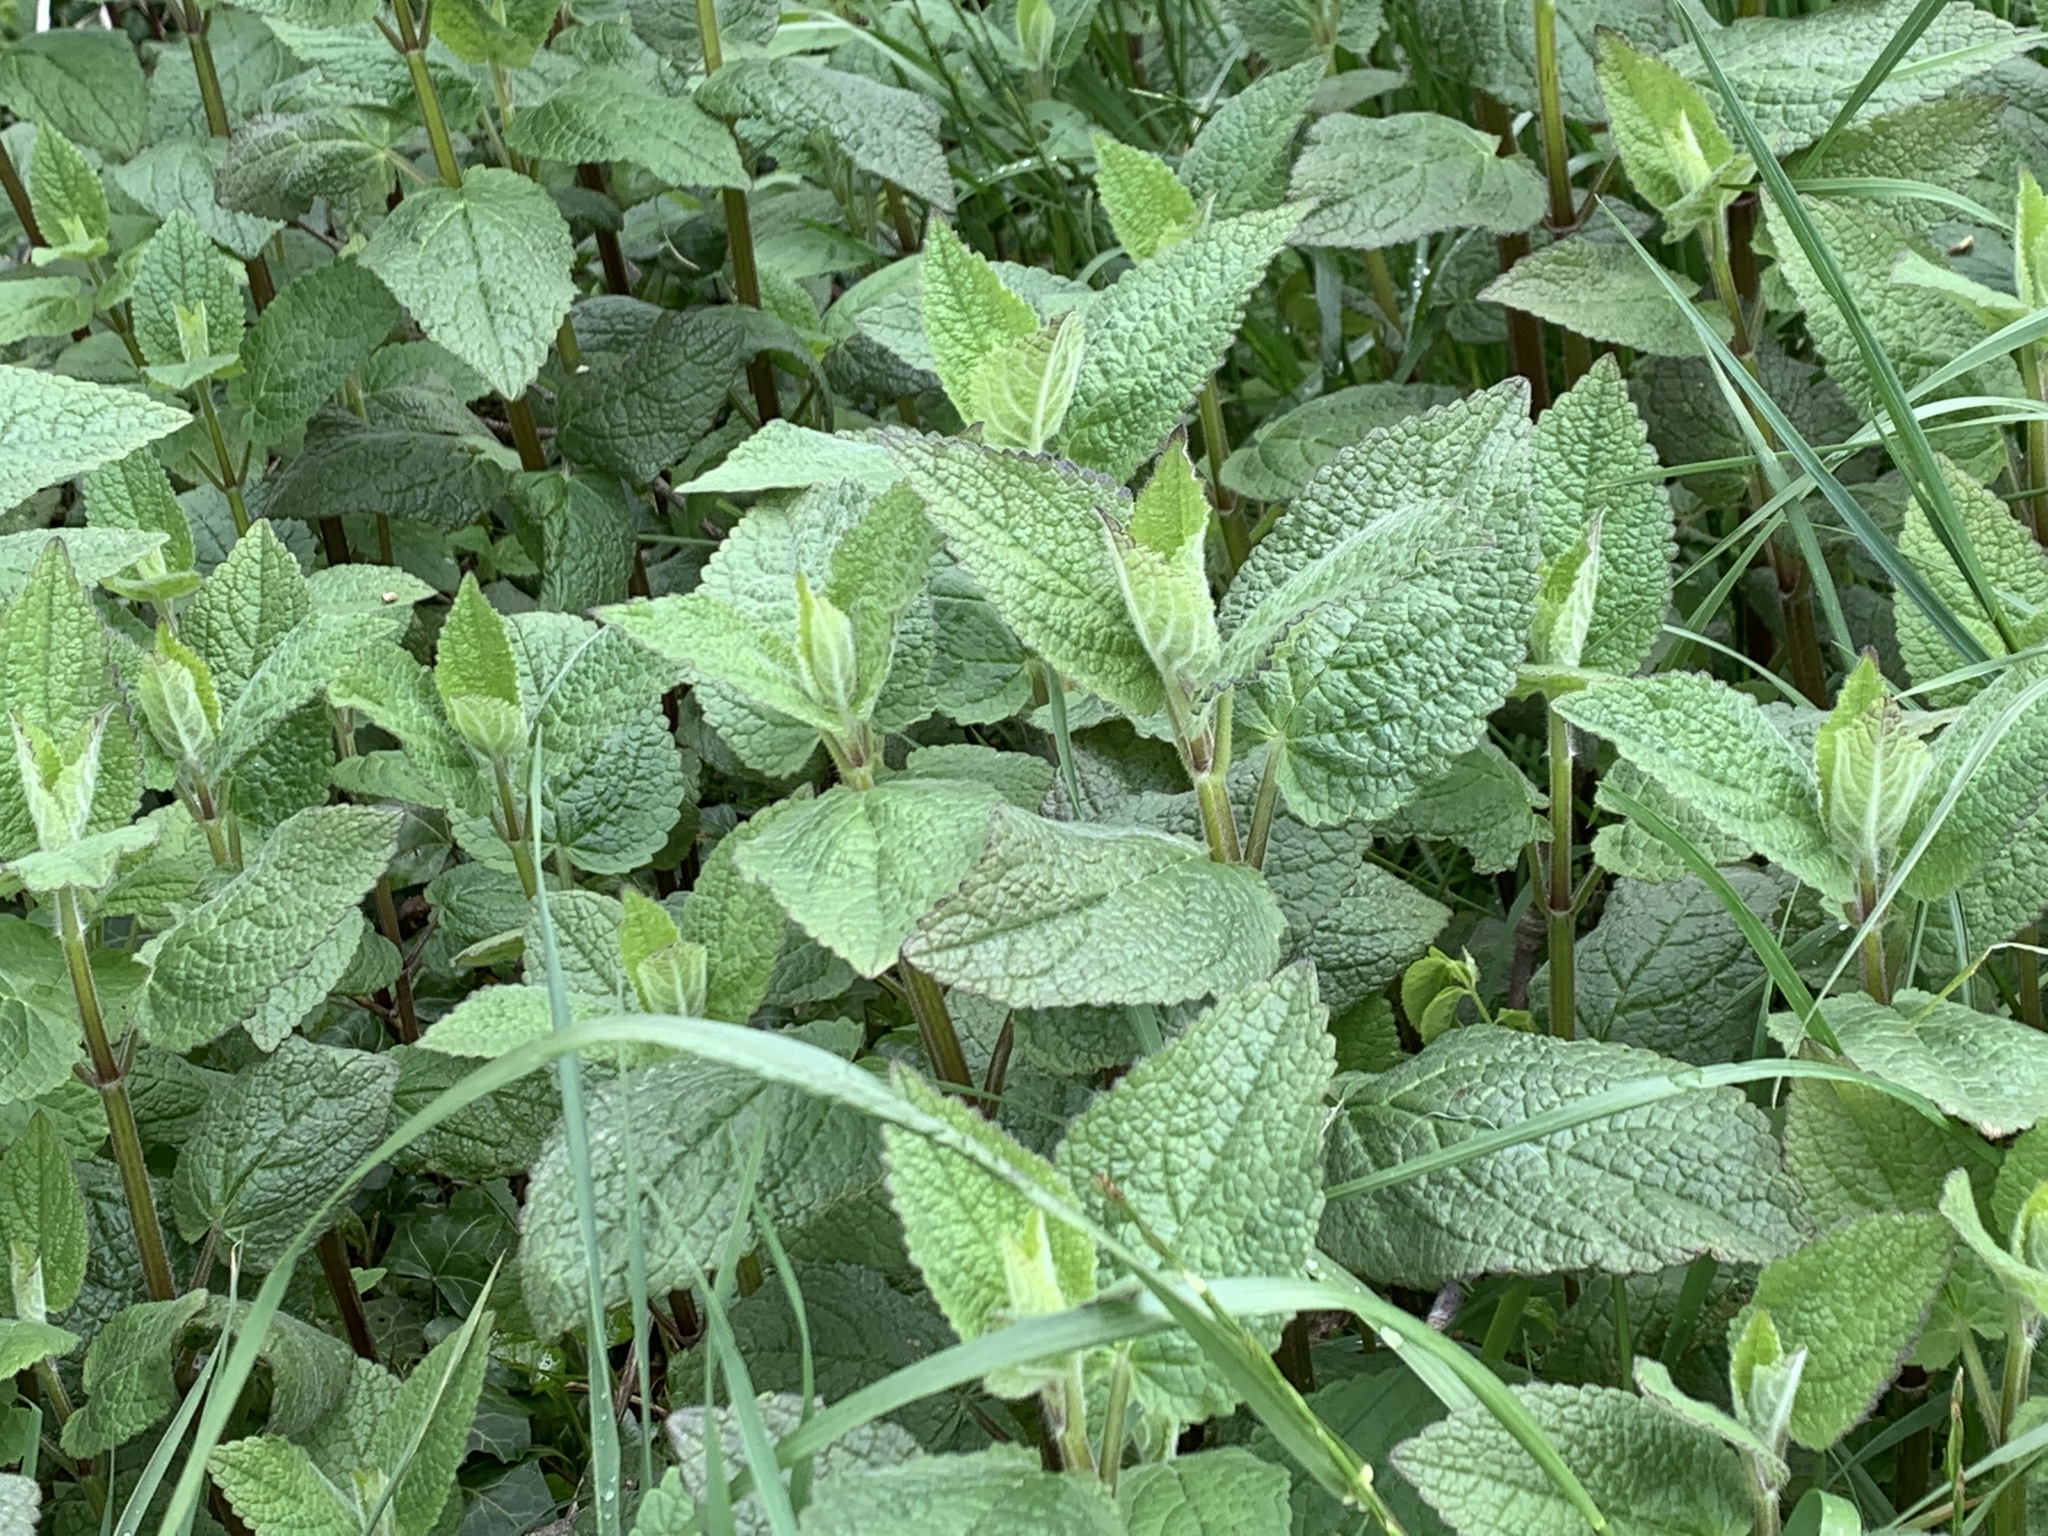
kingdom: Plantae
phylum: Tracheophyta
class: Magnoliopsida
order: Lamiales
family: Lamiaceae
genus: Stachys
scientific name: Stachys chamissonis
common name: Coastal hedge-nettle
